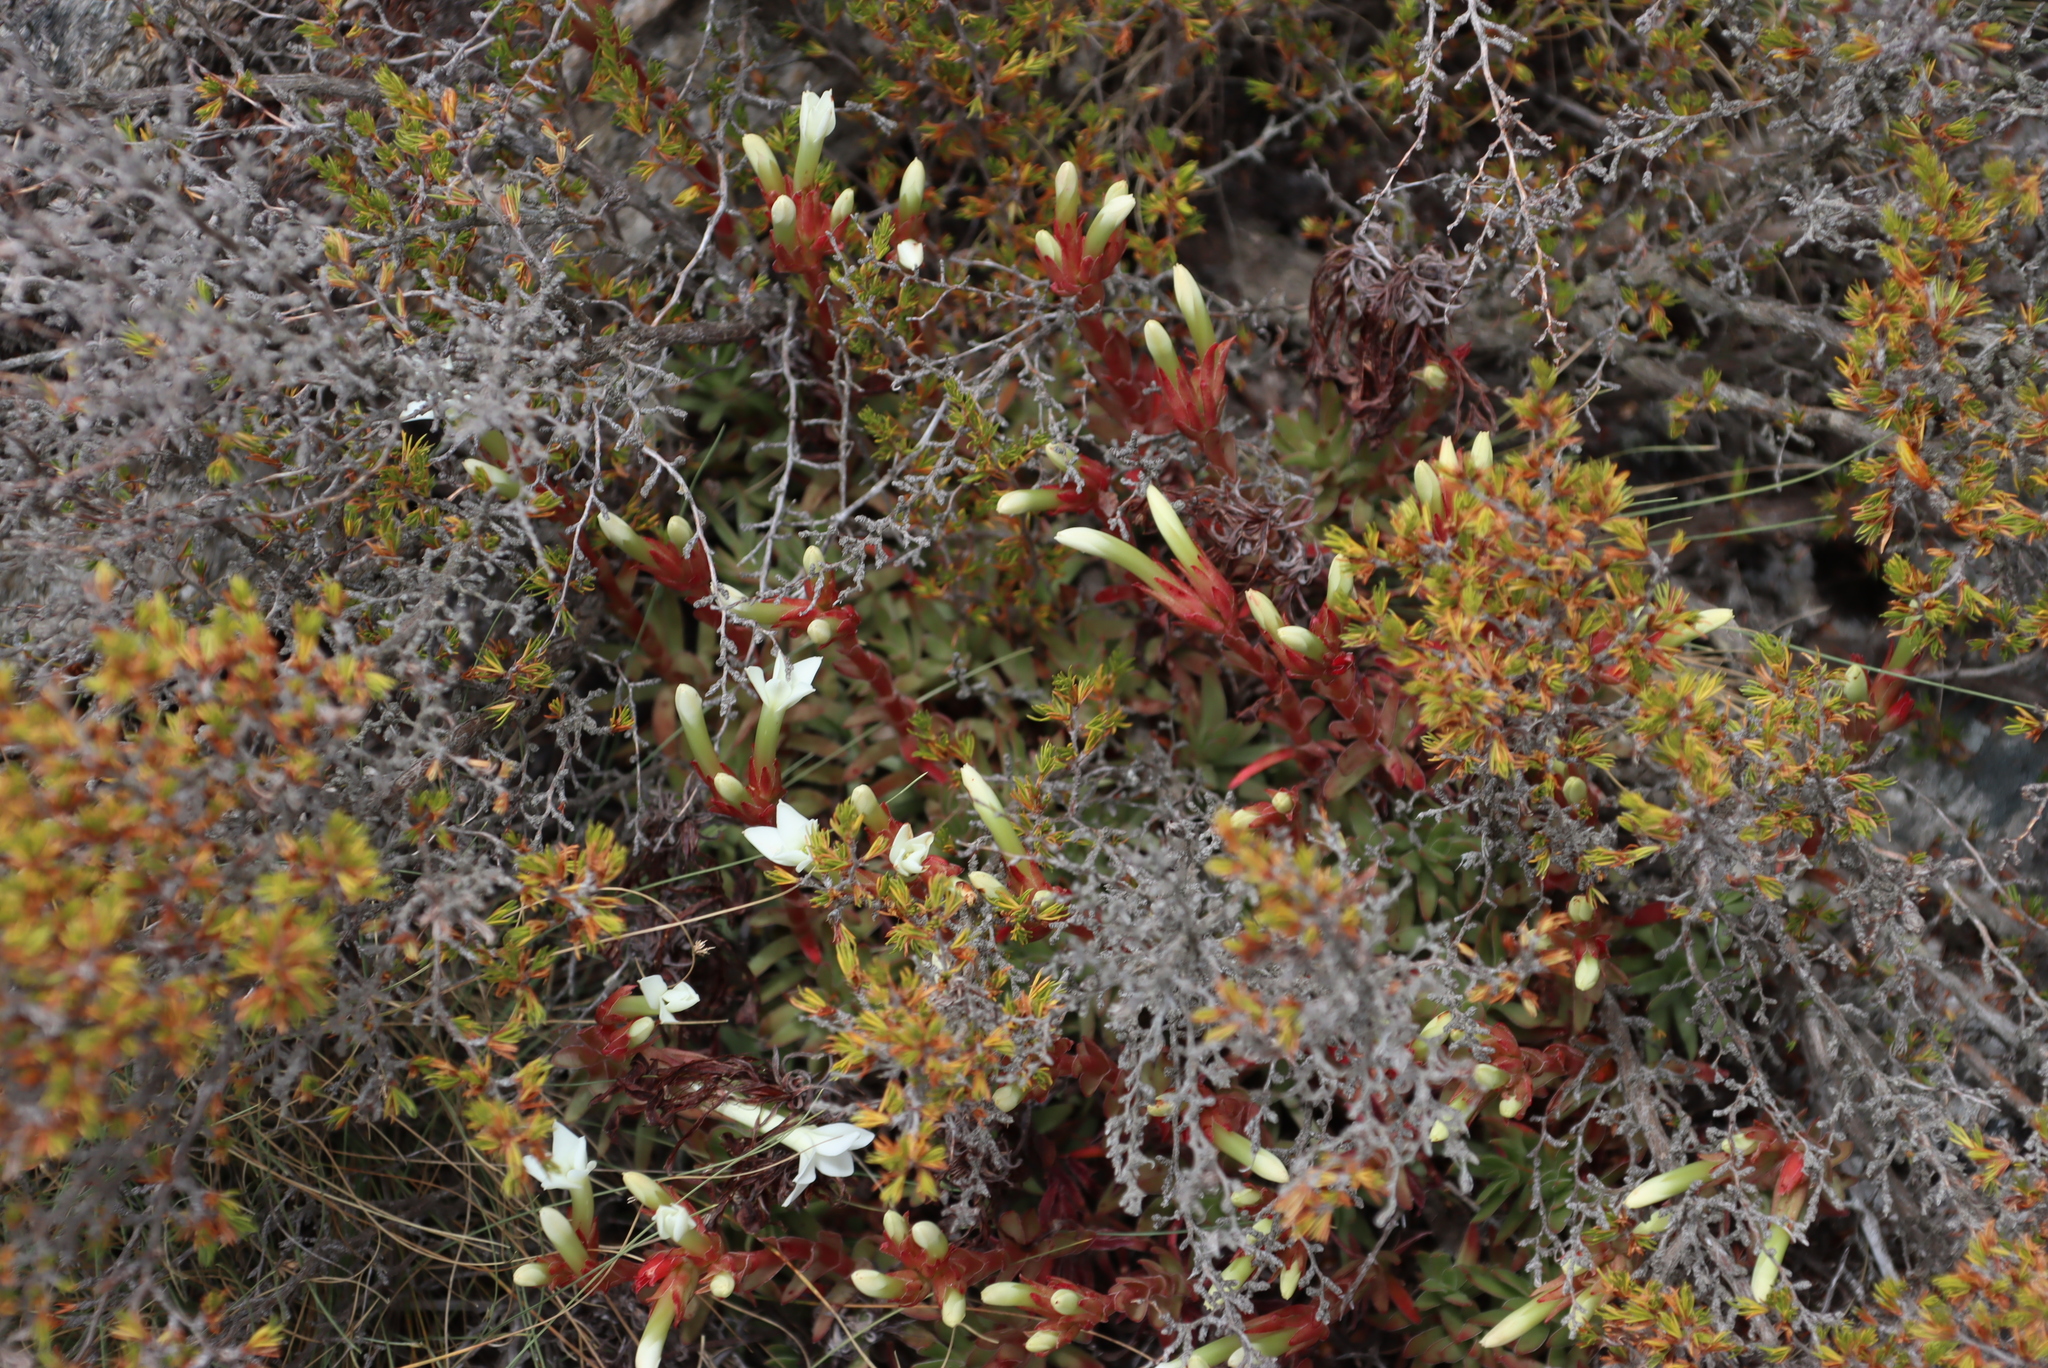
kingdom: Plantae
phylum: Tracheophyta
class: Magnoliopsida
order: Saxifragales
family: Crassulaceae
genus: Crassula
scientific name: Crassula obtusa
